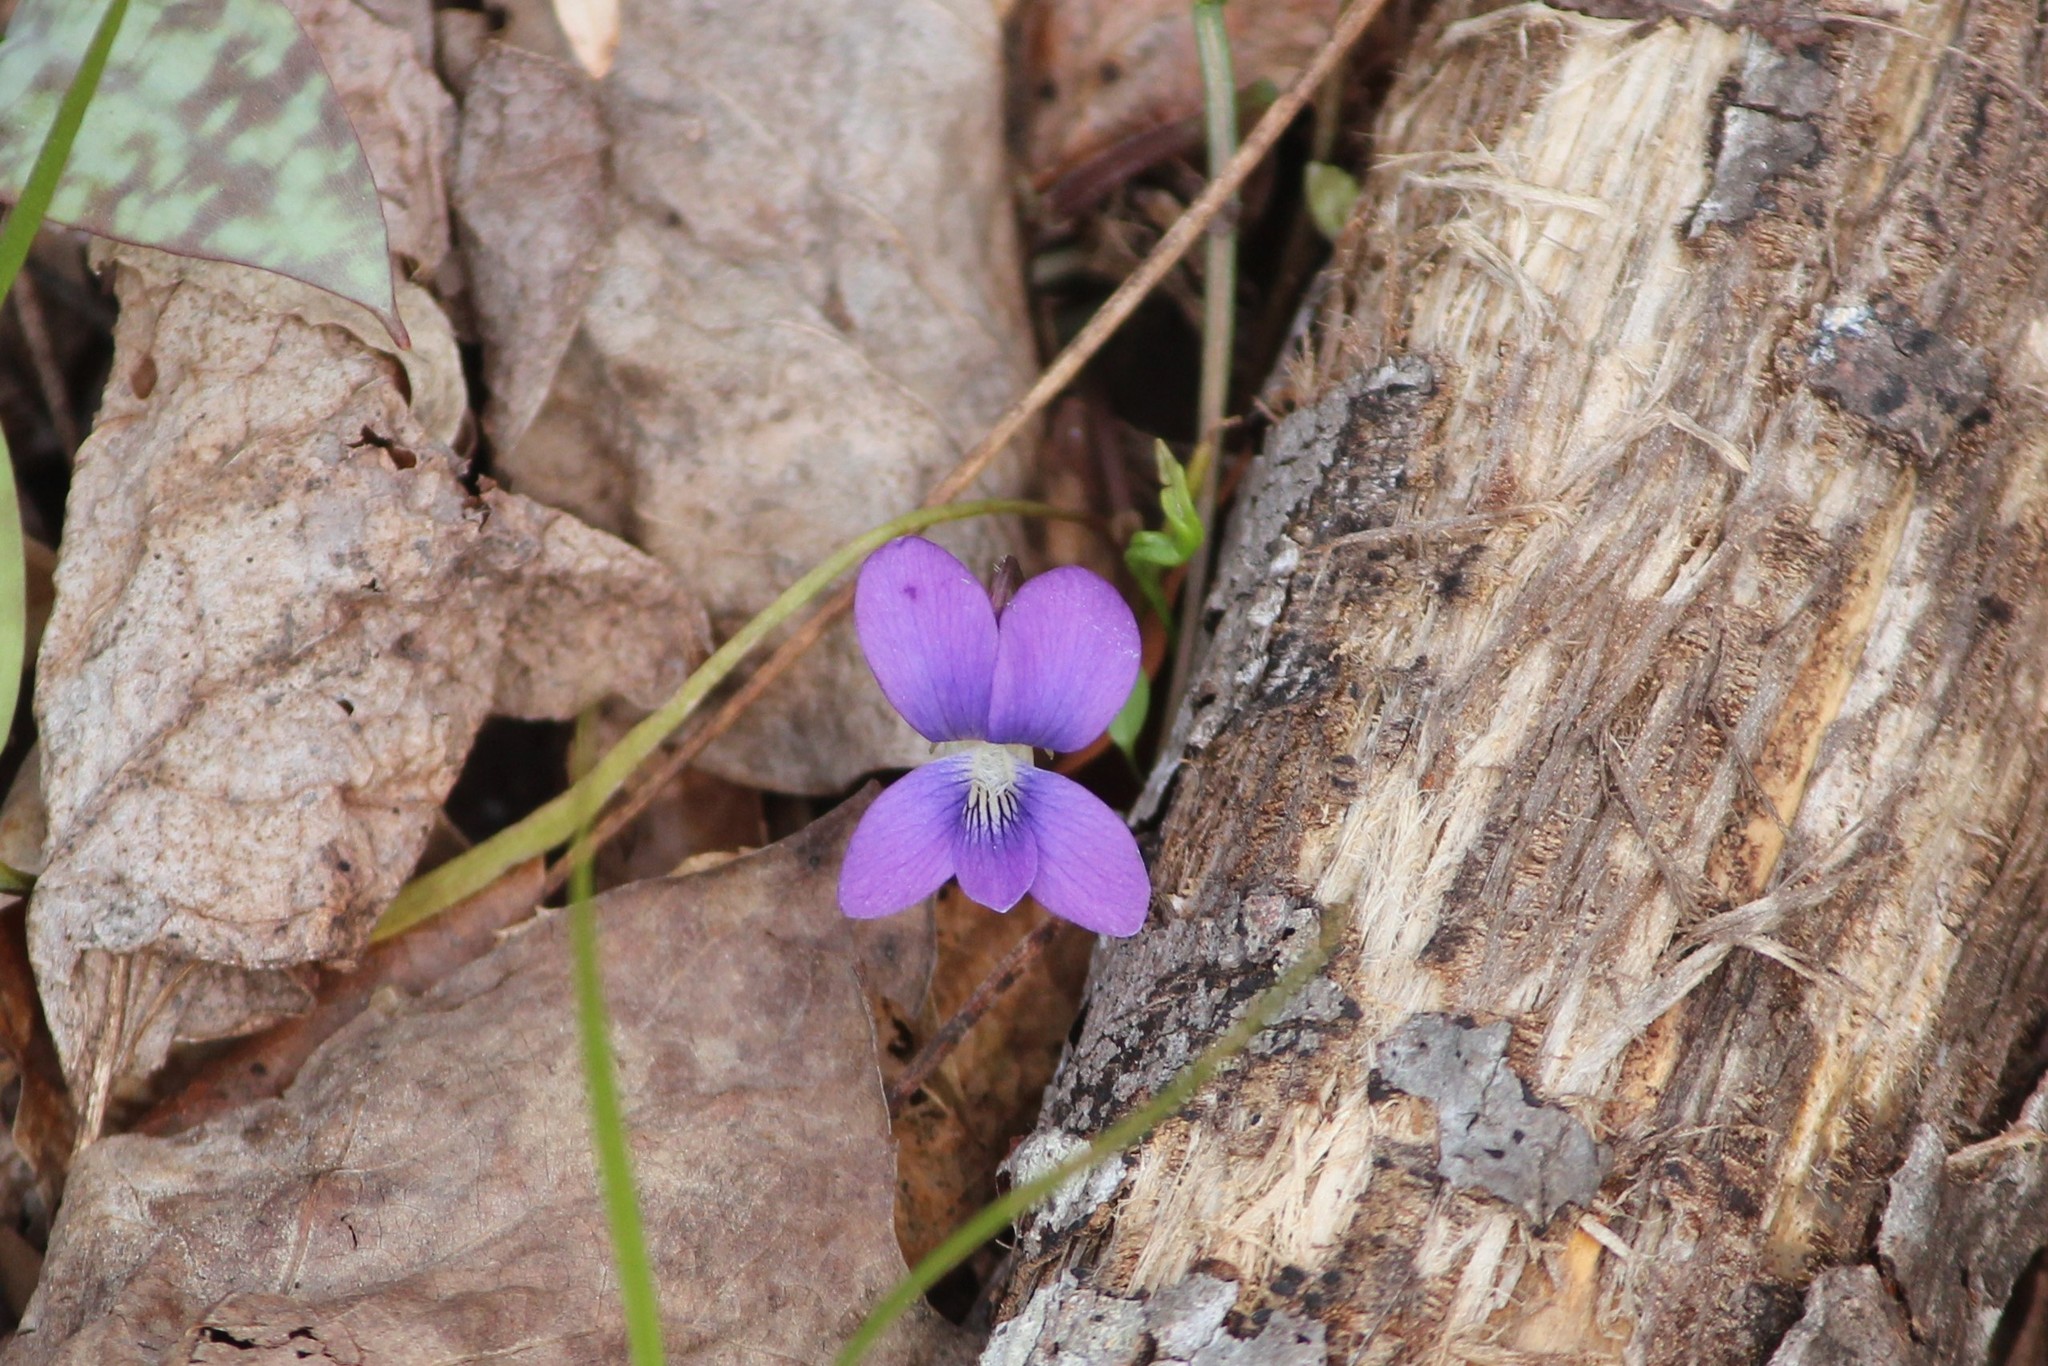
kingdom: Plantae
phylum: Tracheophyta
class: Magnoliopsida
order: Malpighiales
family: Violaceae
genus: Viola
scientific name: Viola sororia
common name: Dooryard violet
